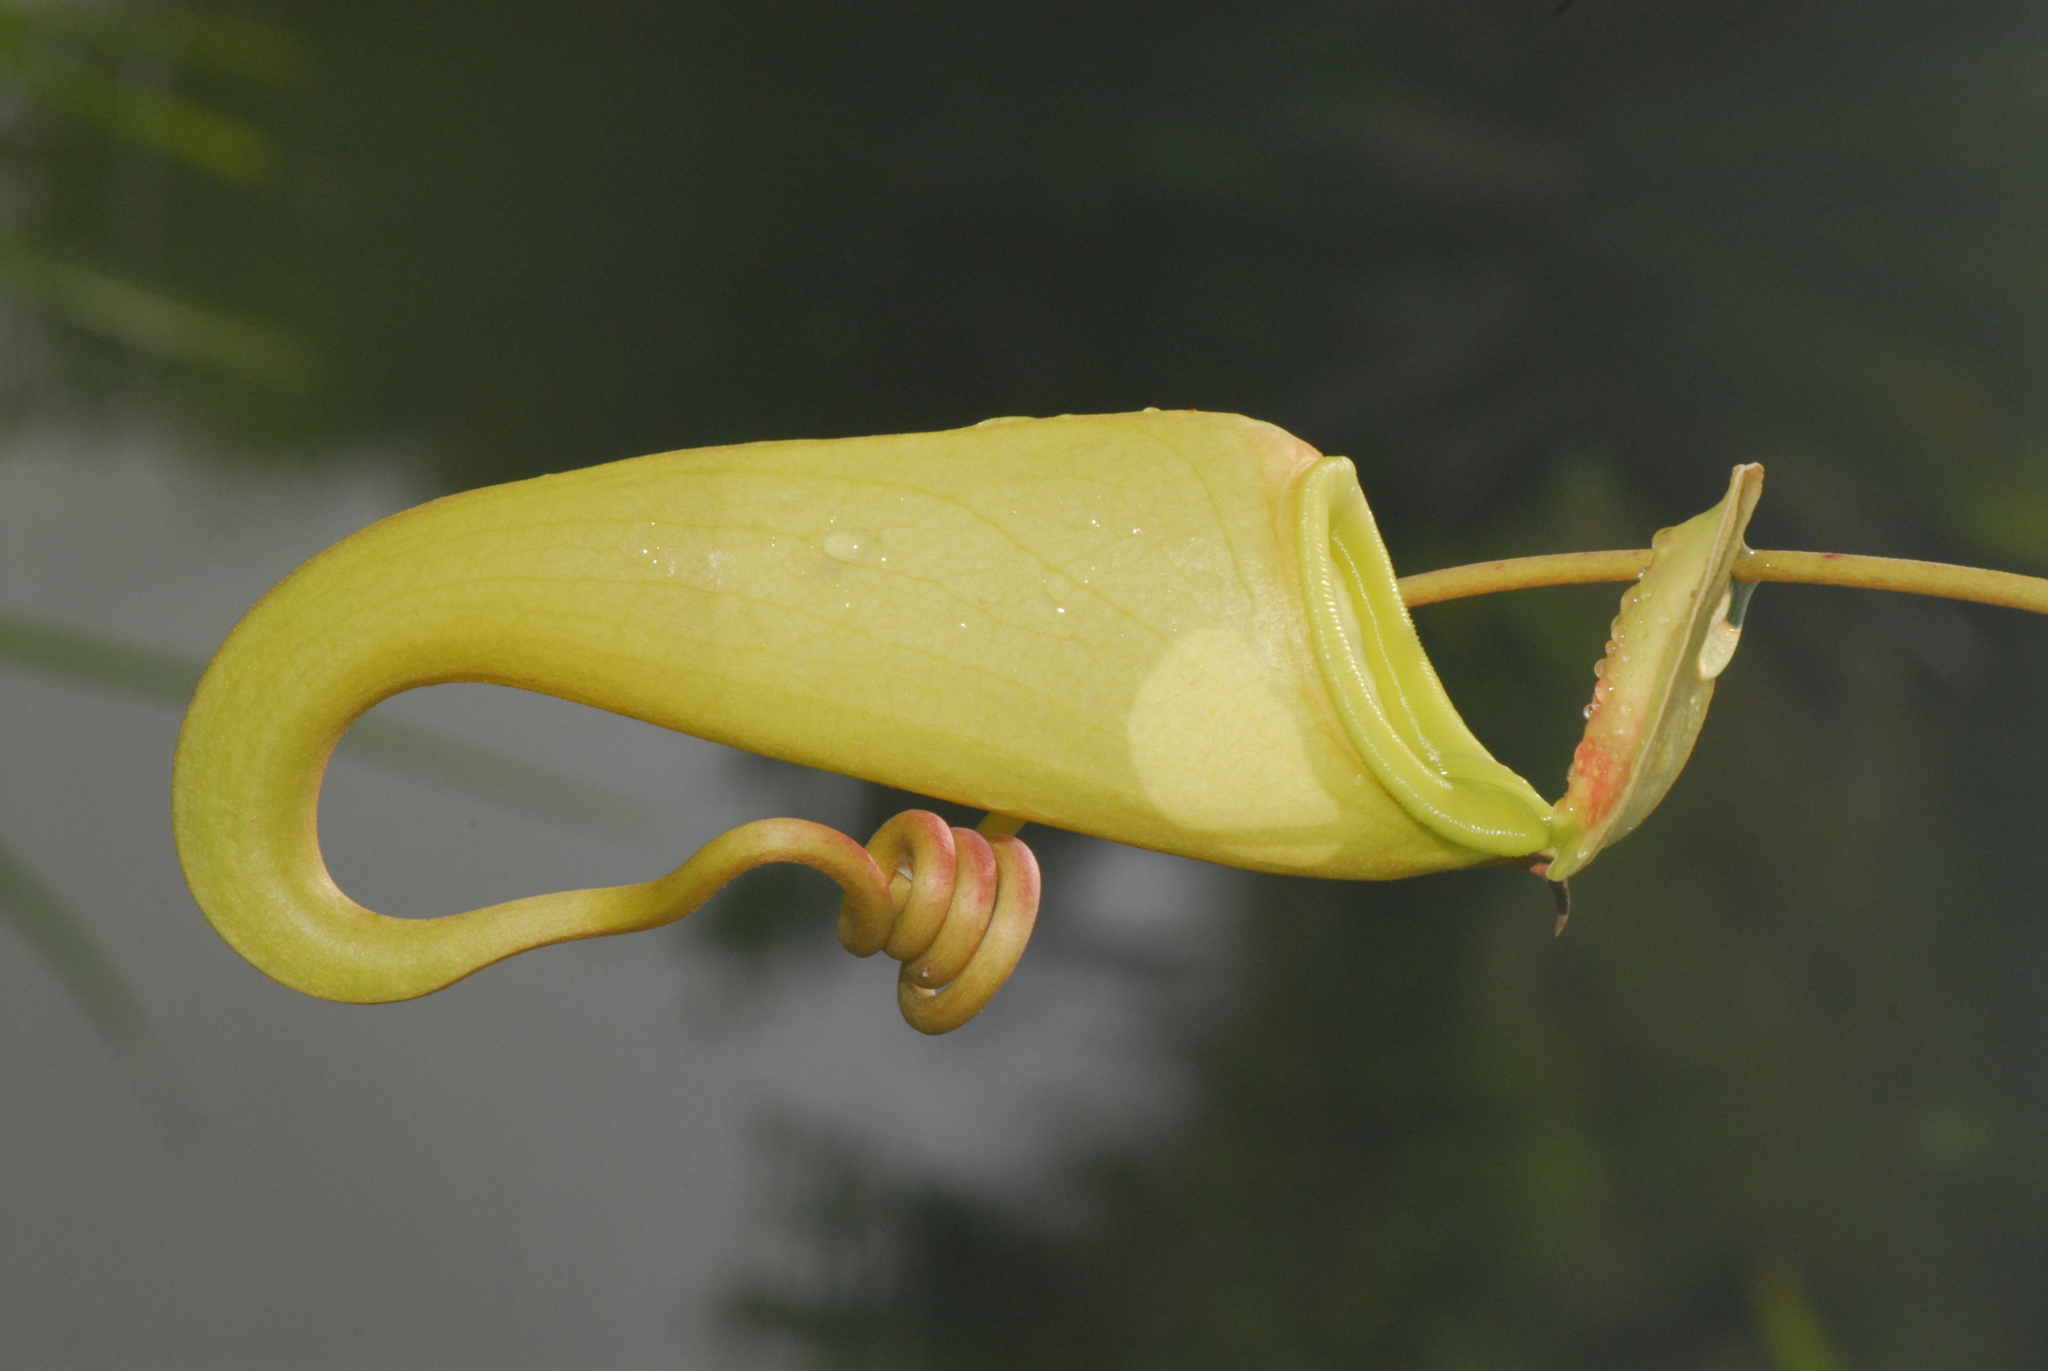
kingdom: Plantae
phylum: Tracheophyta
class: Magnoliopsida
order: Caryophyllales
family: Nepenthaceae
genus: Nepenthes
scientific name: Nepenthes madagascariensis
